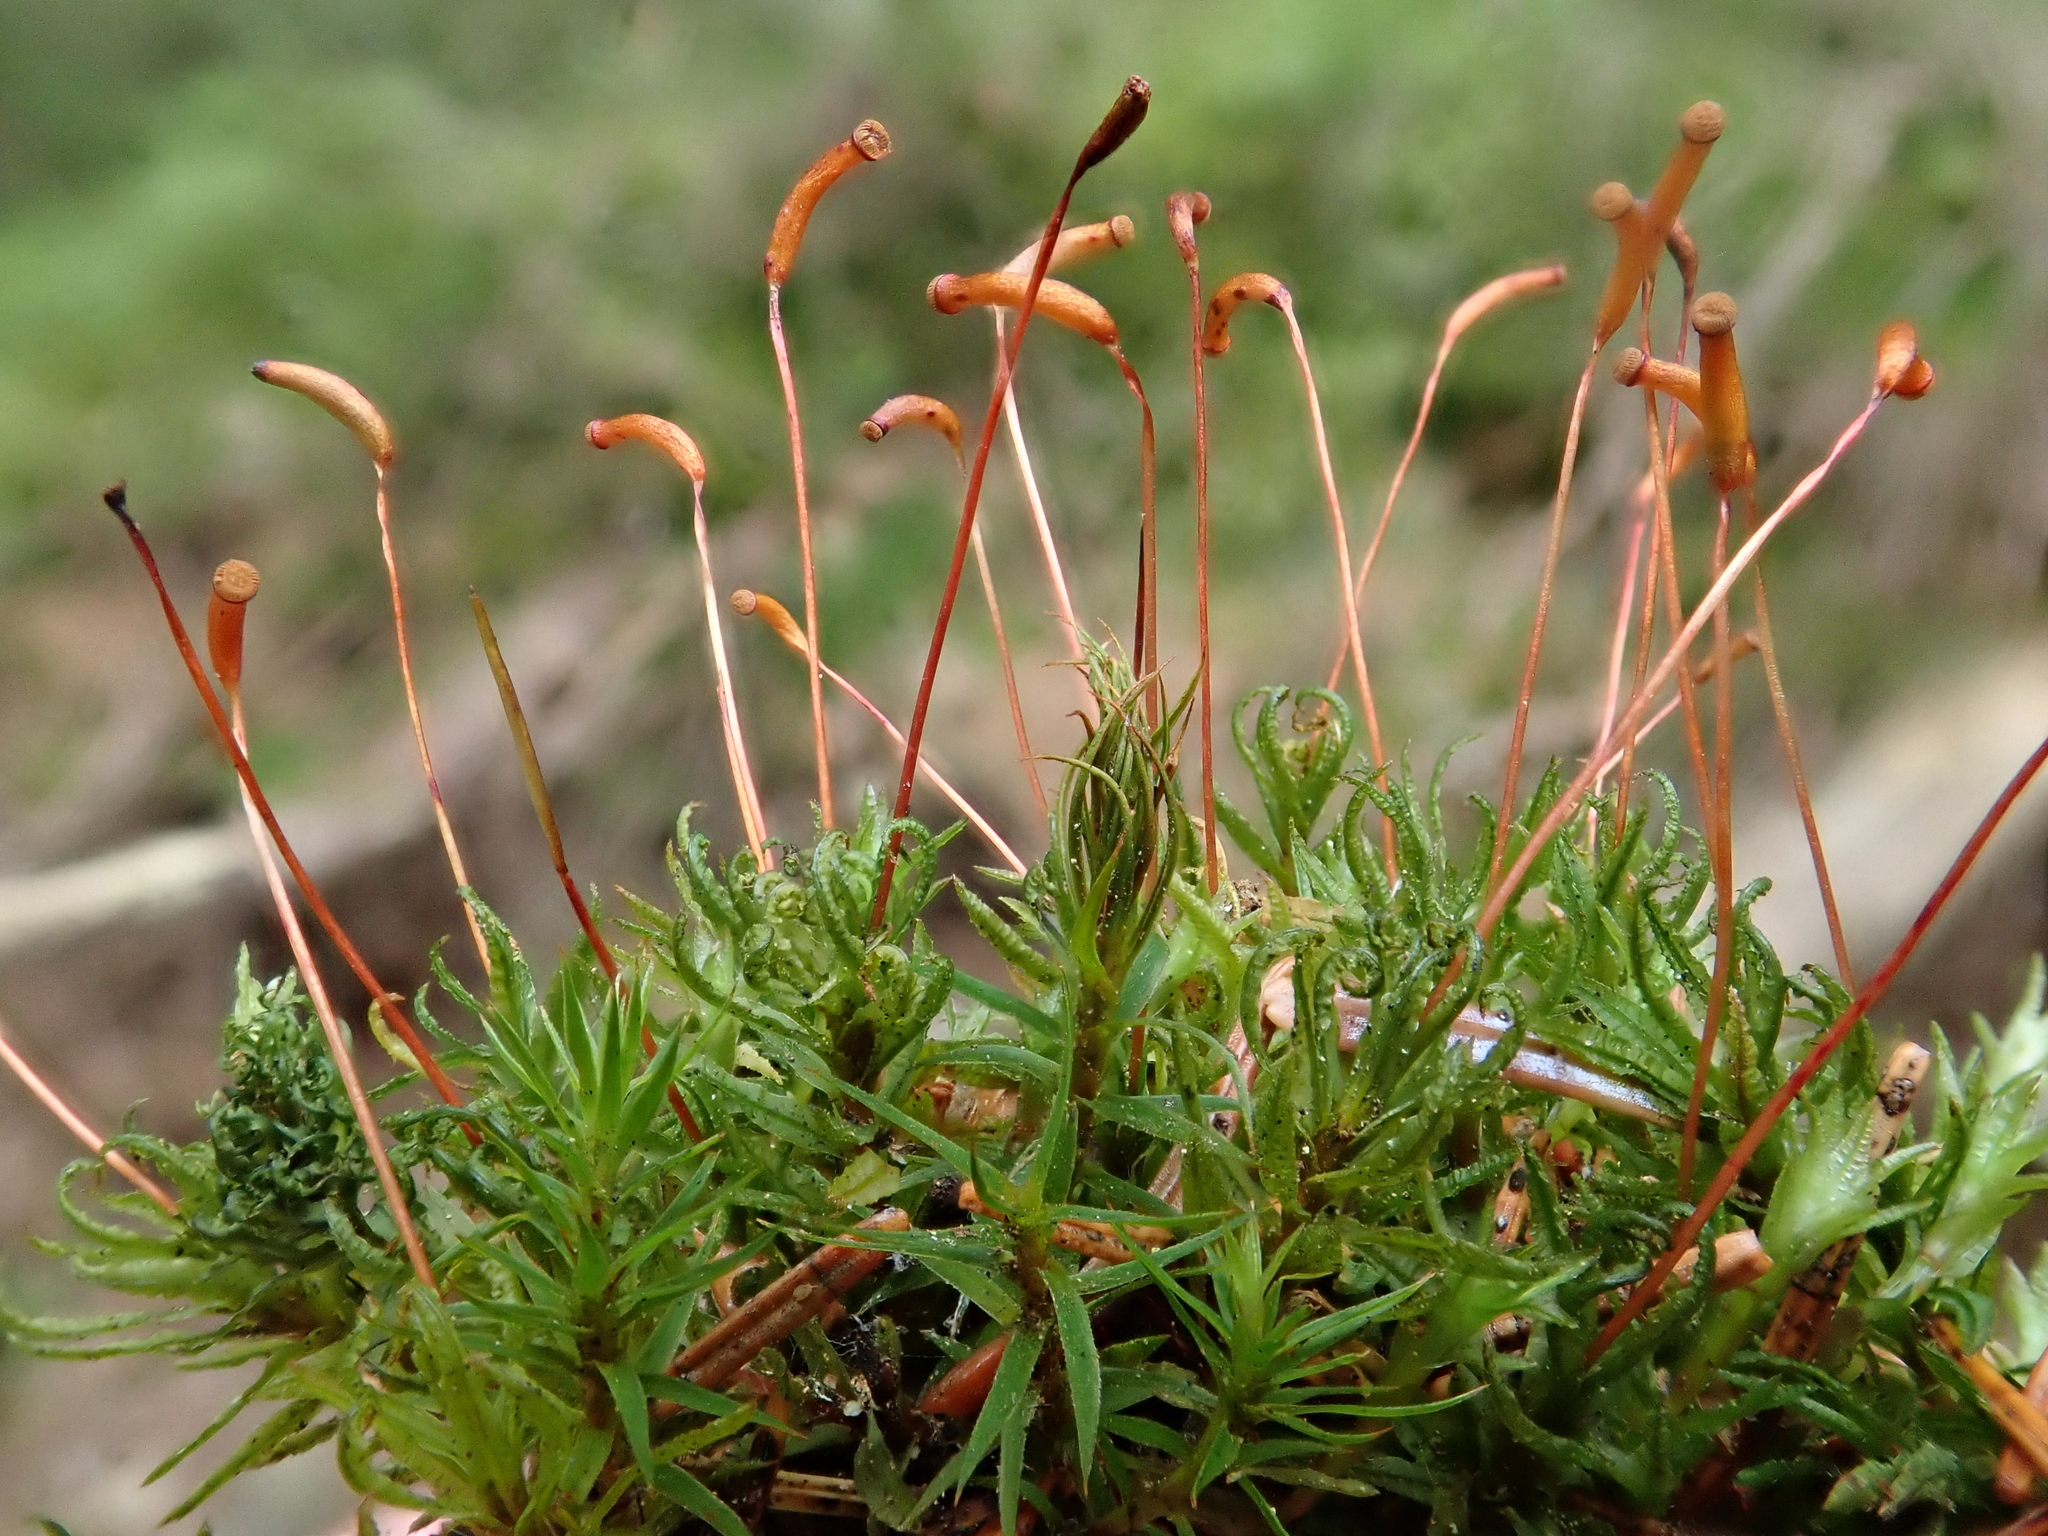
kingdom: Plantae
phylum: Bryophyta
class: Polytrichopsida
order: Polytrichales
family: Polytrichaceae
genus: Atrichum
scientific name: Atrichum undulatum
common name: Common smoothcap
